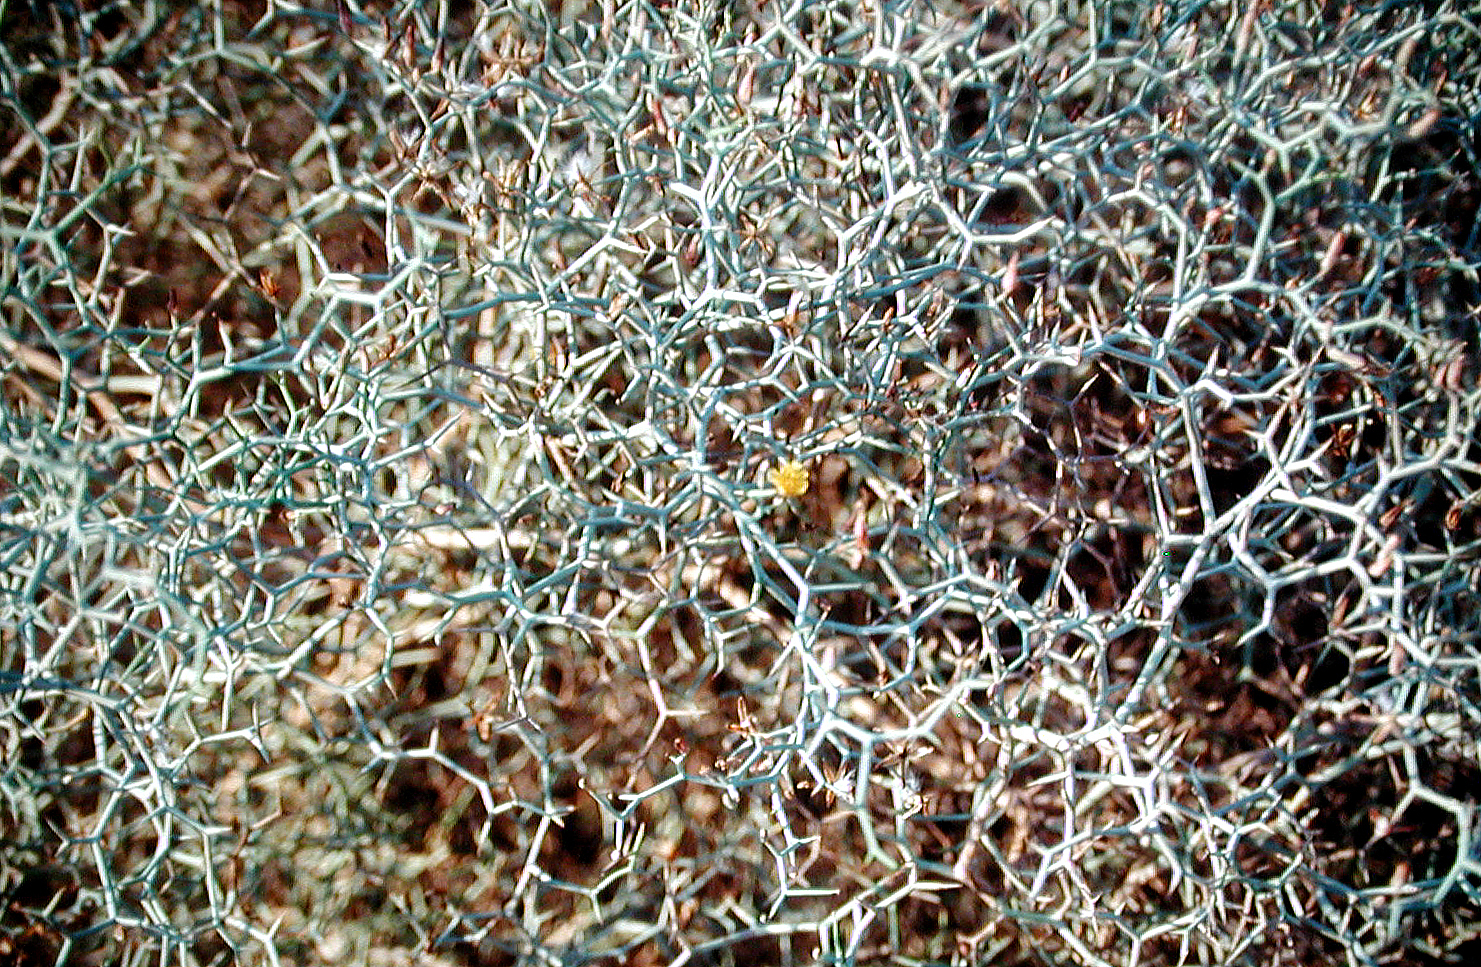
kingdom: Plantae
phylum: Tracheophyta
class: Magnoliopsida
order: Asterales
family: Asteraceae
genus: Launaea
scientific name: Launaea arborescens
